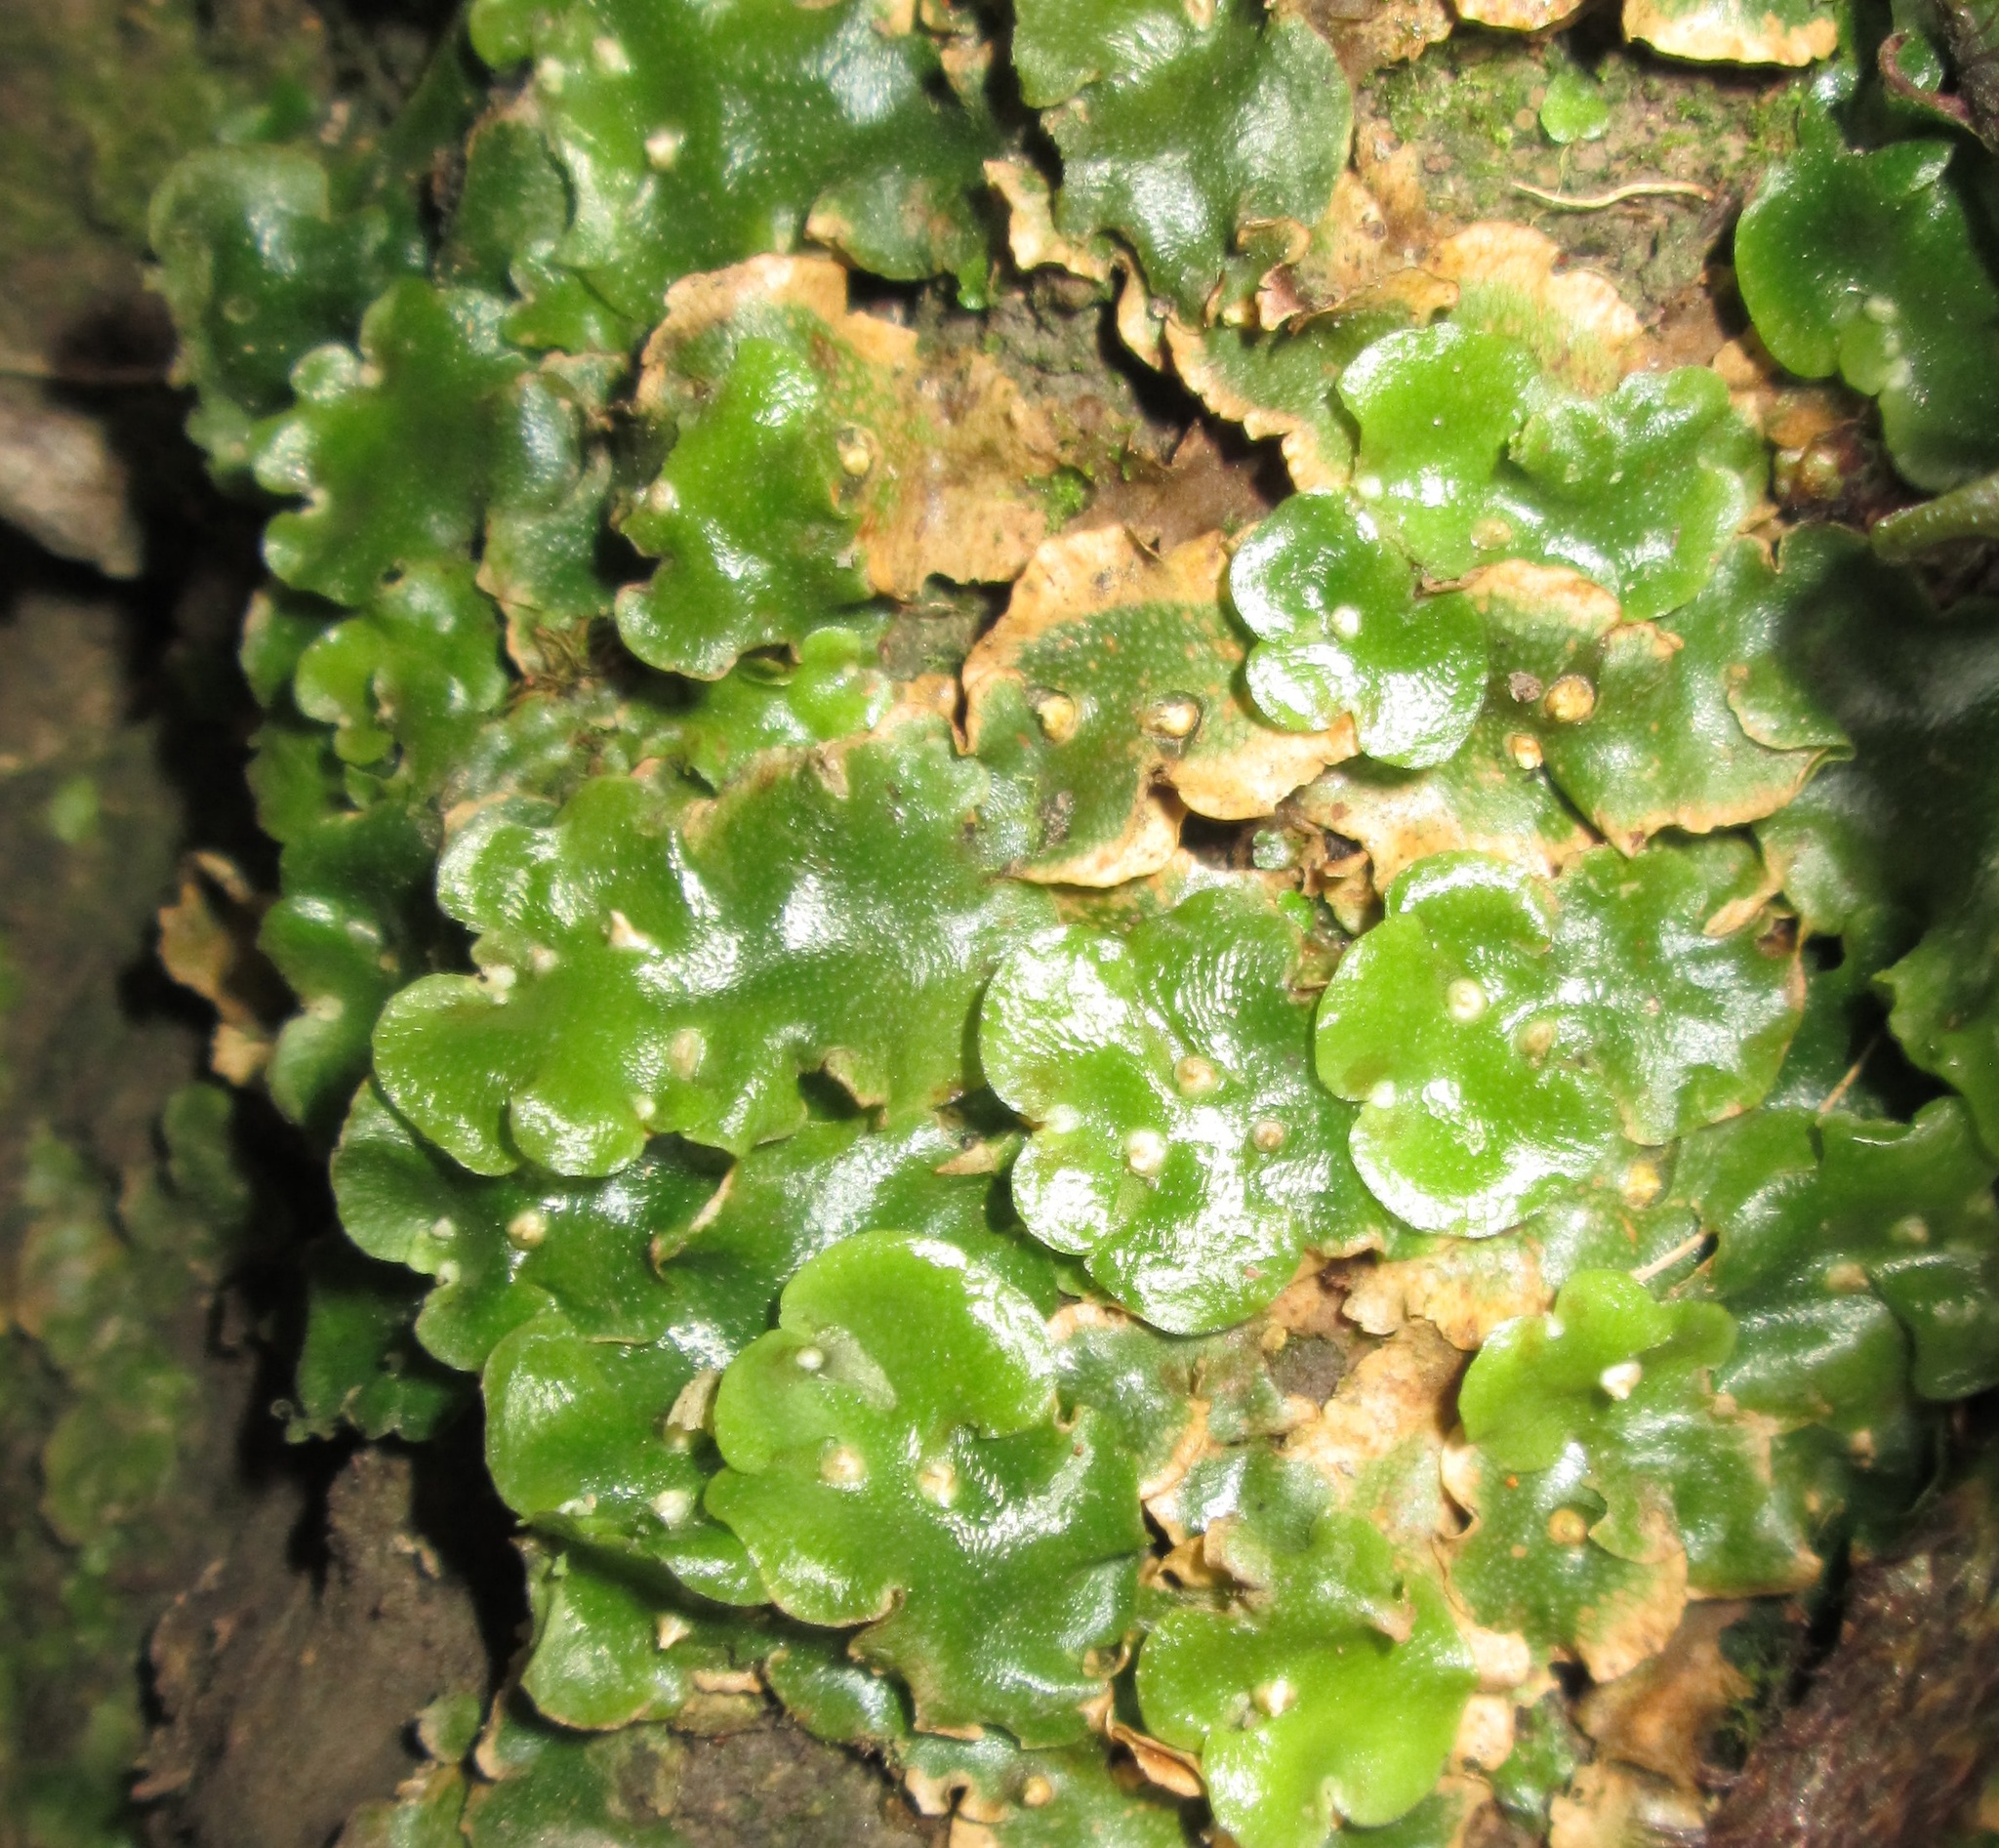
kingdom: Plantae
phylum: Marchantiophyta
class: Marchantiopsida
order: Lunulariales
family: Lunulariaceae
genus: Lunularia
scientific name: Lunularia cruciata
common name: Crescent-cup liverwort
